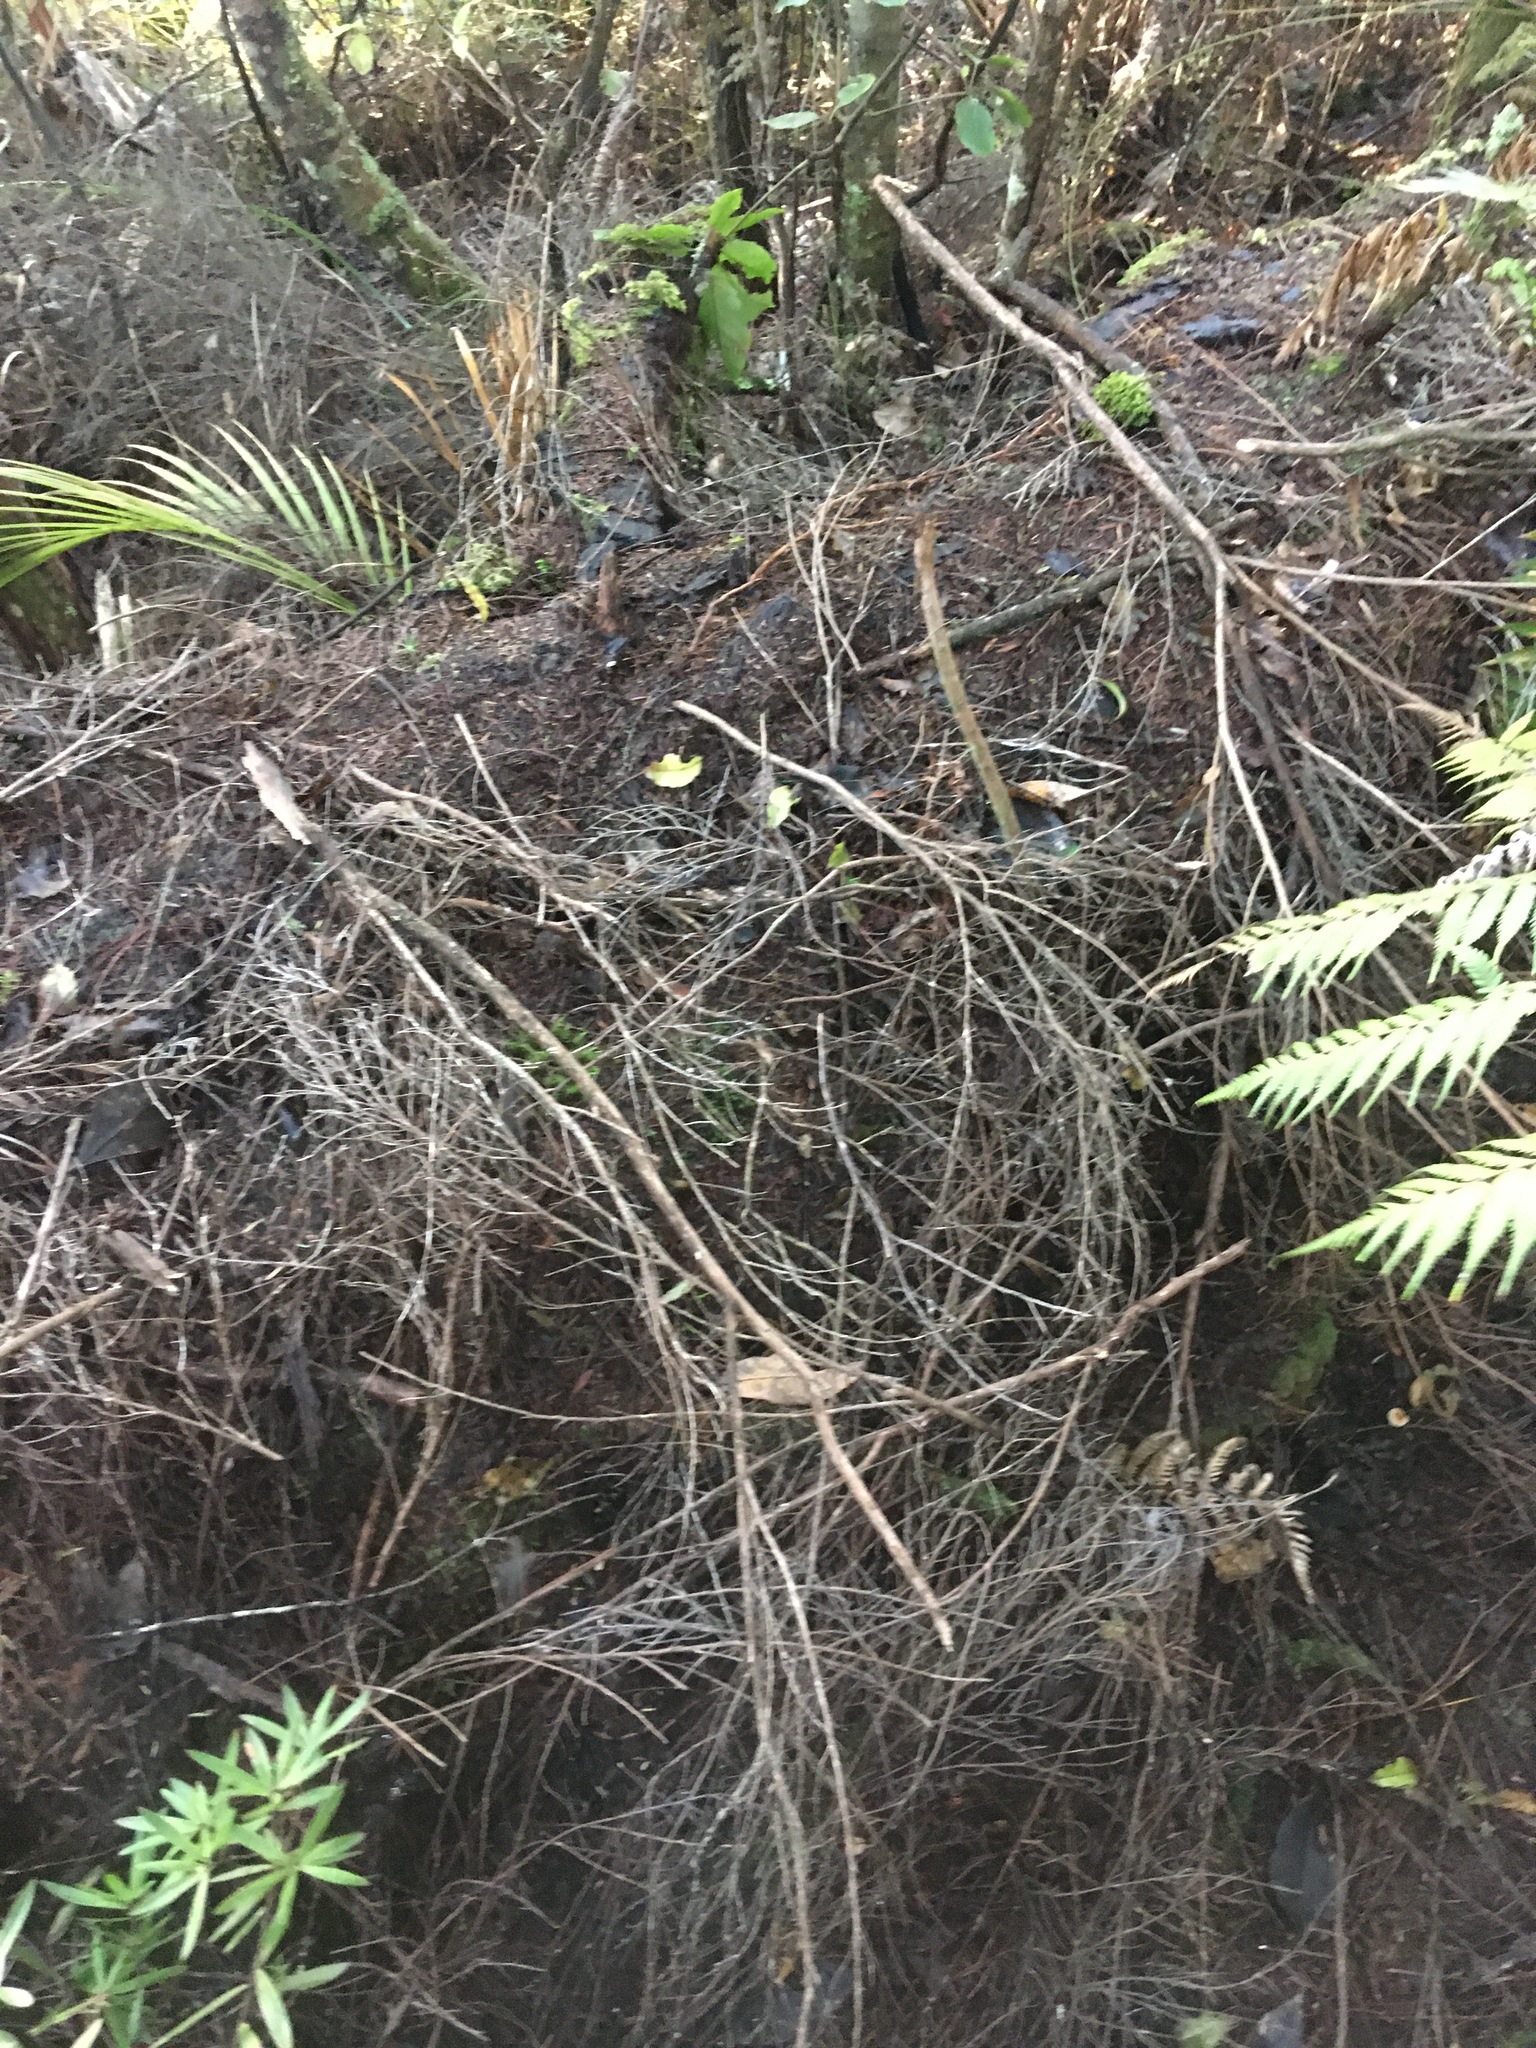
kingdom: Plantae
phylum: Tracheophyta
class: Polypodiopsida
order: Polypodiales
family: Aspleniaceae
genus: Asplenium
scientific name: Asplenium polyodon
